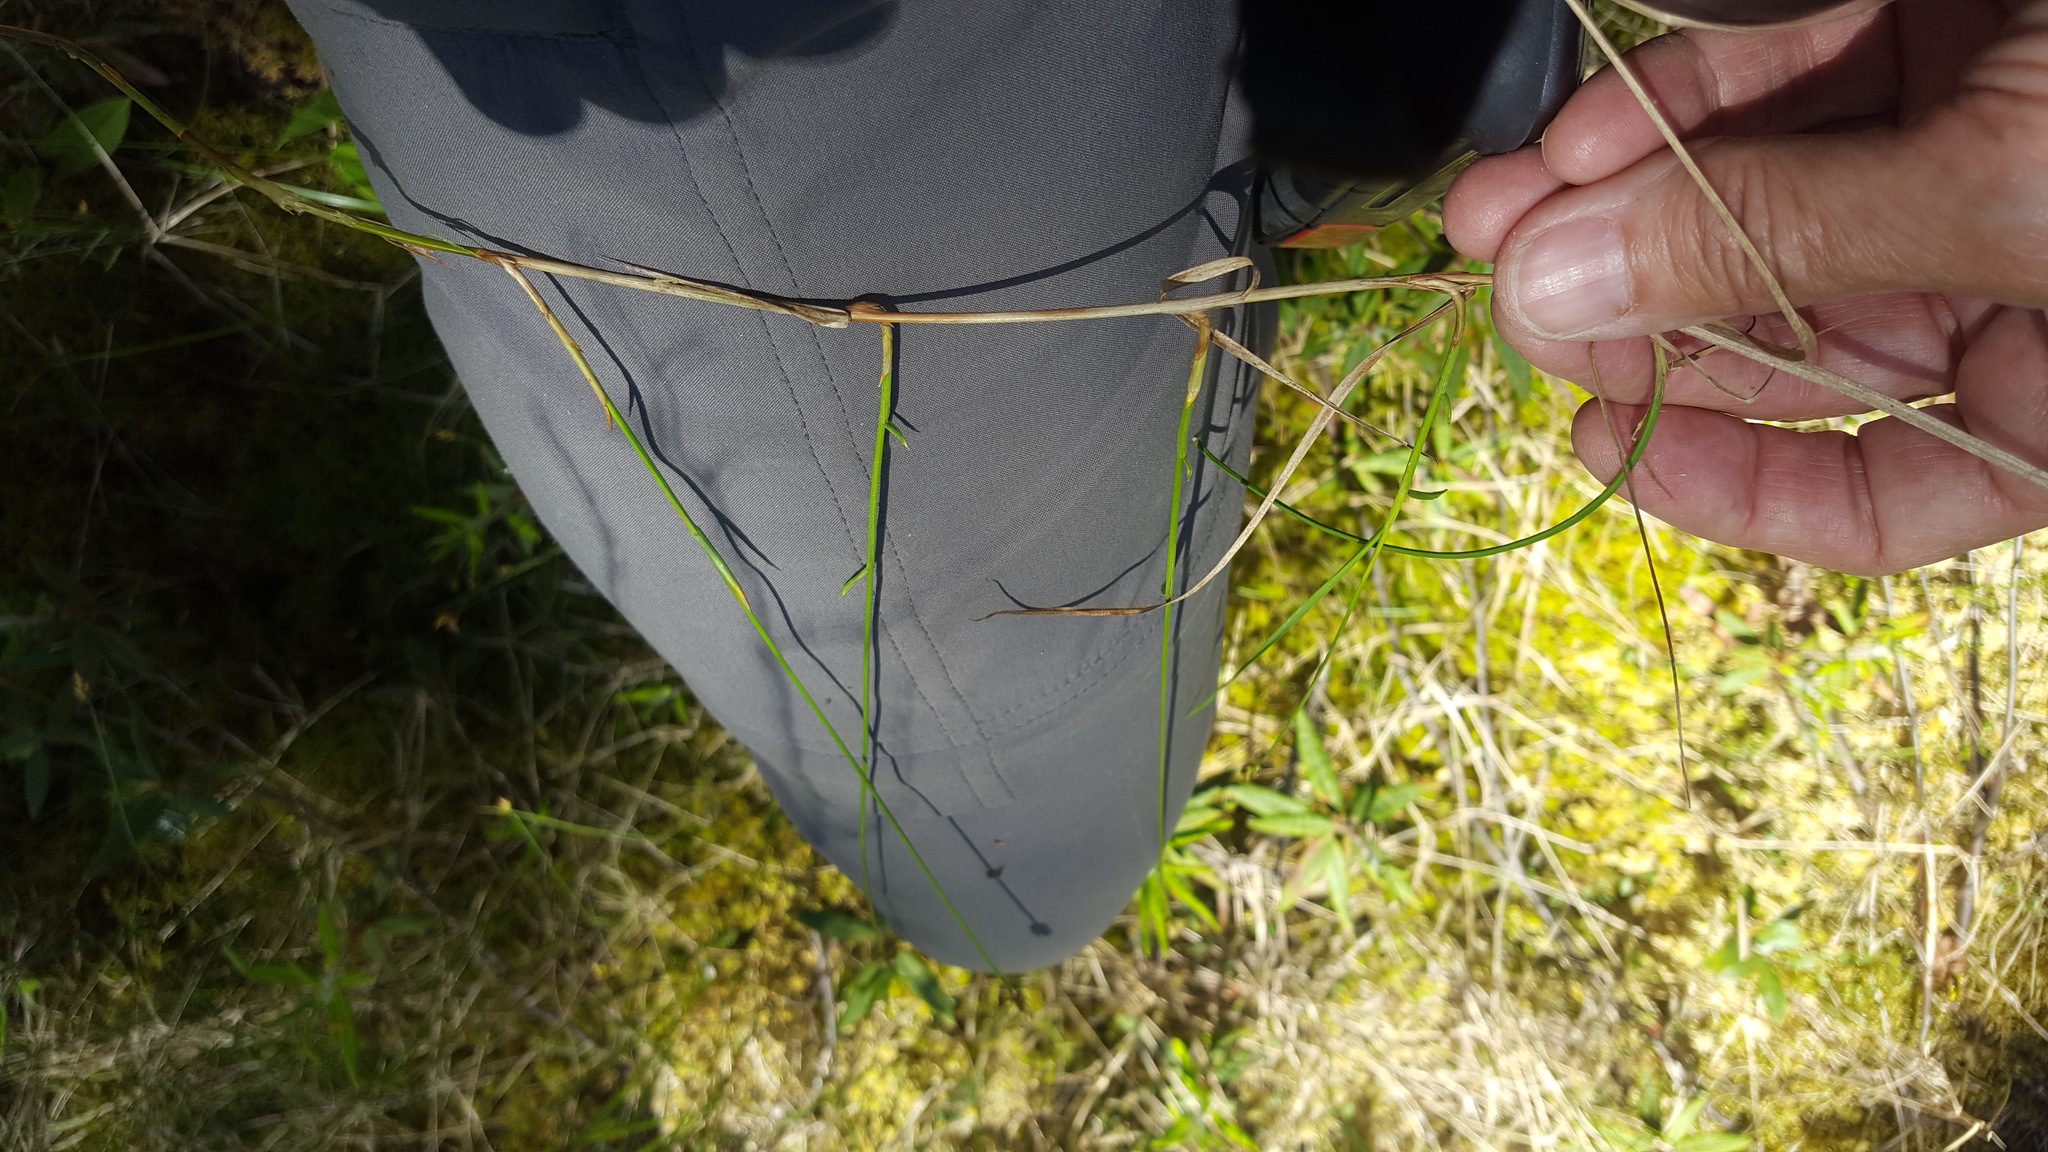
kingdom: Plantae
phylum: Tracheophyta
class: Liliopsida
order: Poales
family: Cyperaceae
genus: Carex
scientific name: Carex chordorrhiza
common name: String sedge
